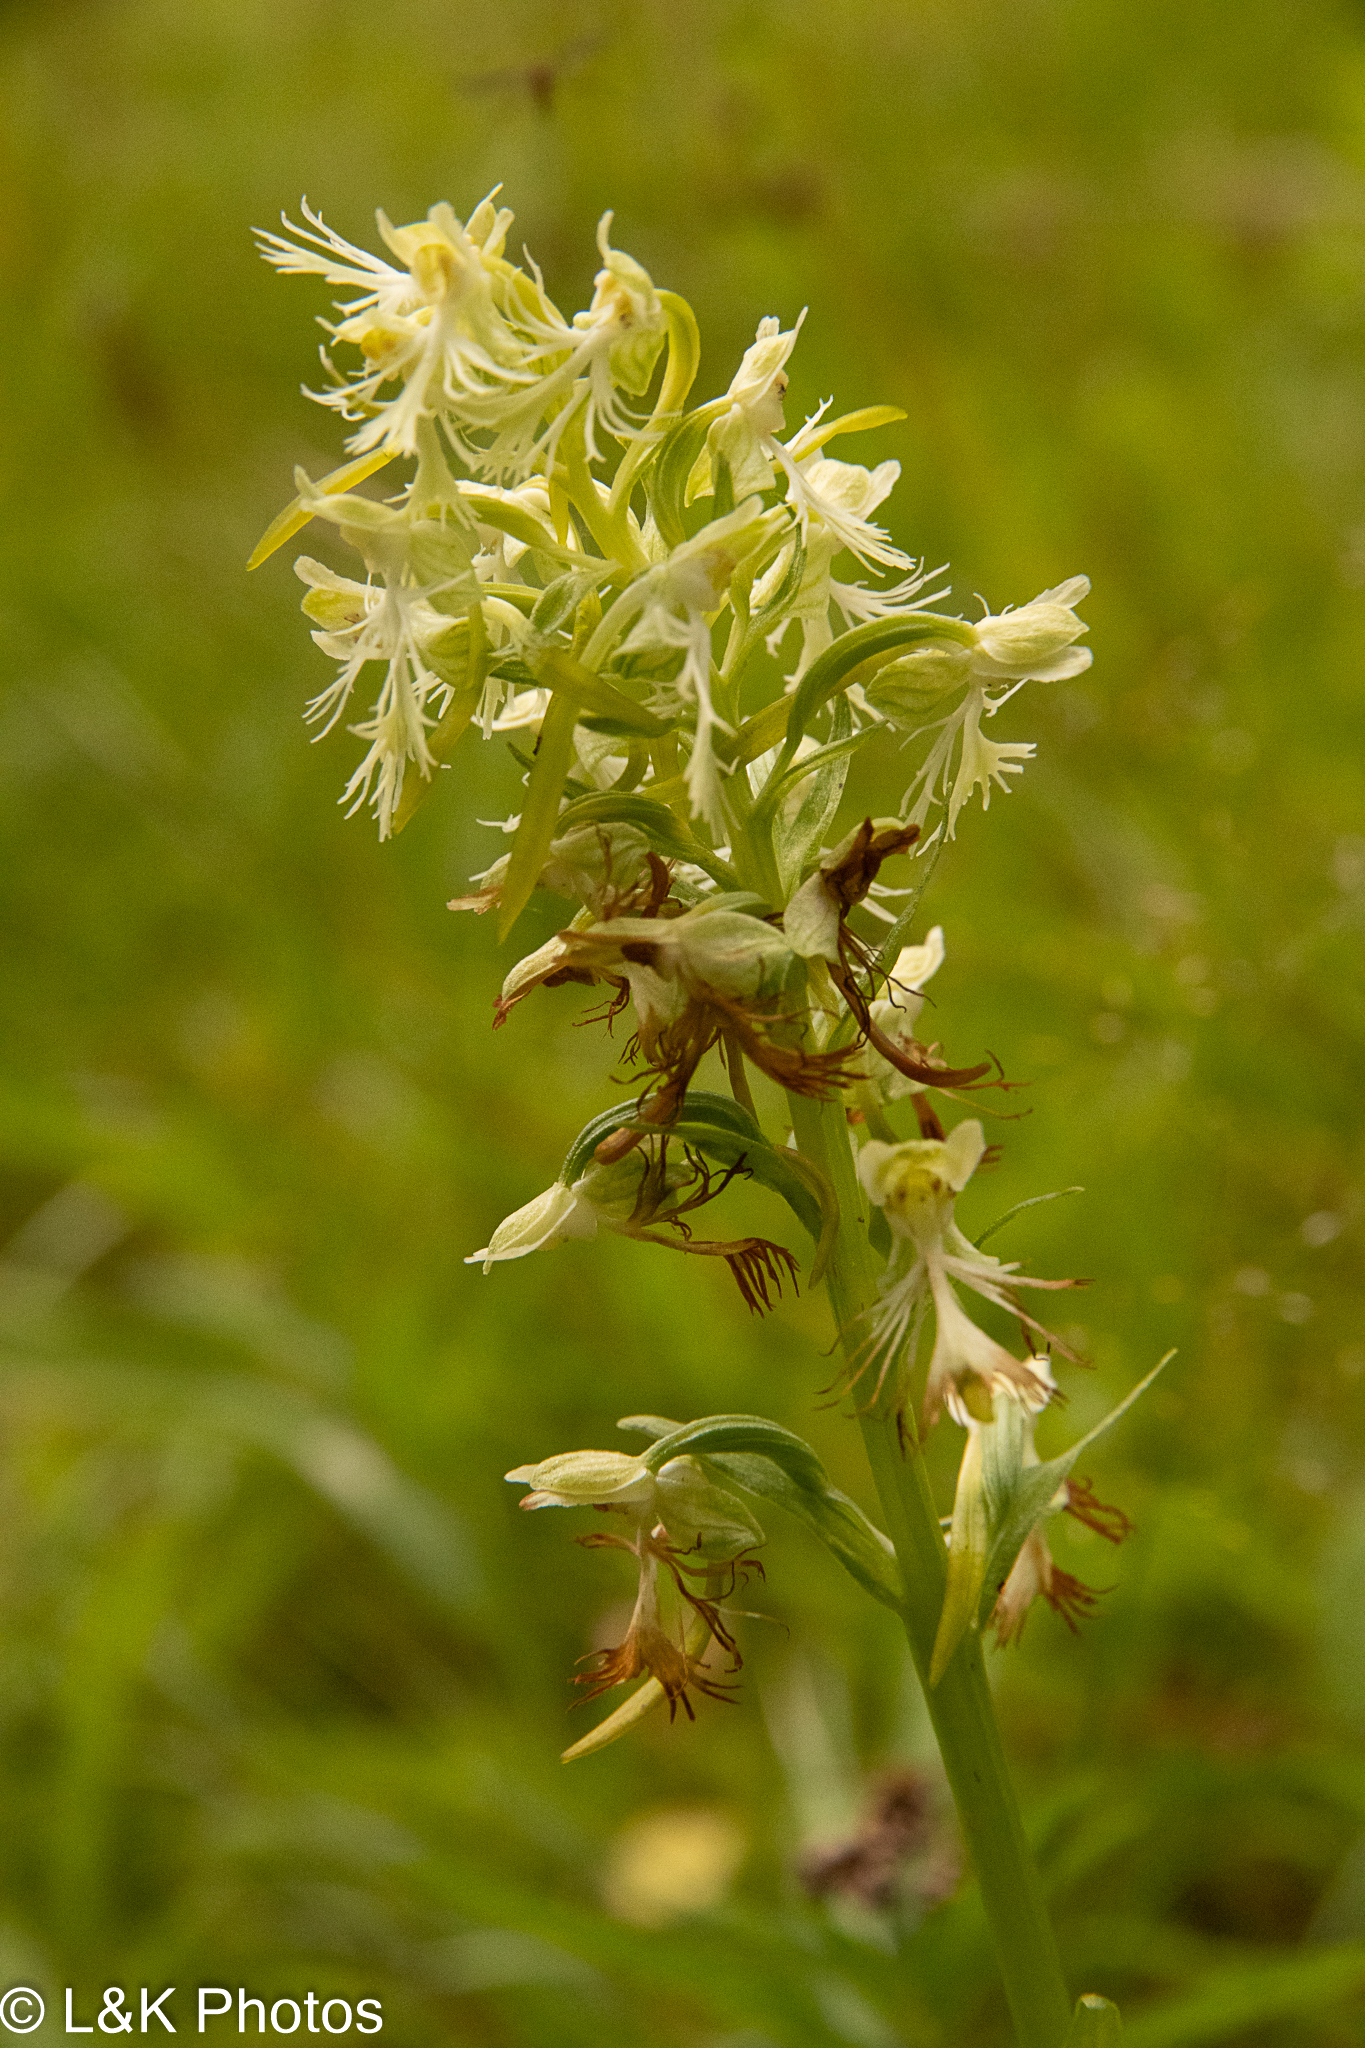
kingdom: Plantae
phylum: Tracheophyta
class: Liliopsida
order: Asparagales
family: Orchidaceae
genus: Platanthera
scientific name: Platanthera lacera
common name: Green fringed orchid
